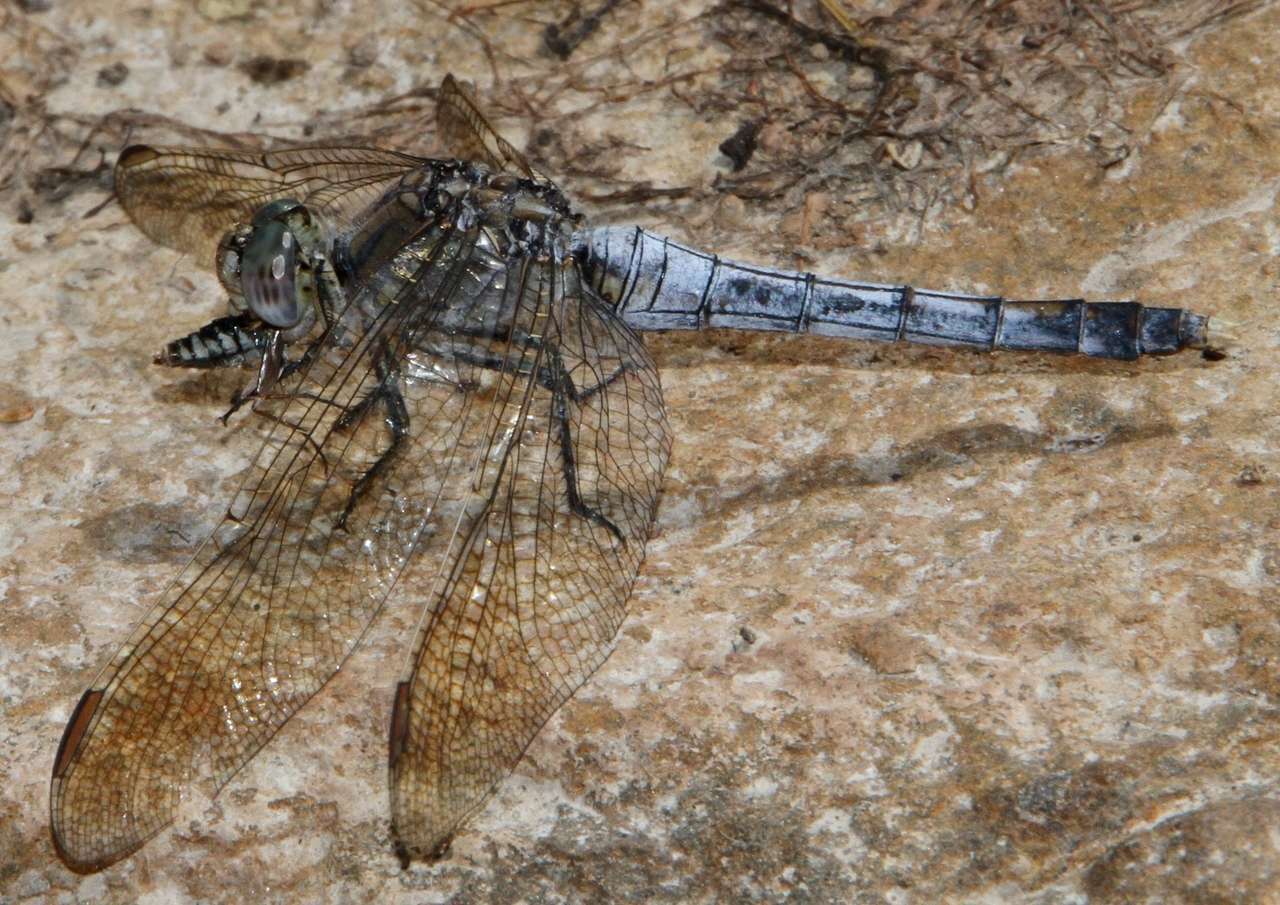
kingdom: Animalia
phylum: Arthropoda
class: Insecta
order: Odonata
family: Libellulidae
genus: Orthetrum
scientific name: Orthetrum caledonicum
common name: Blue skimmer
